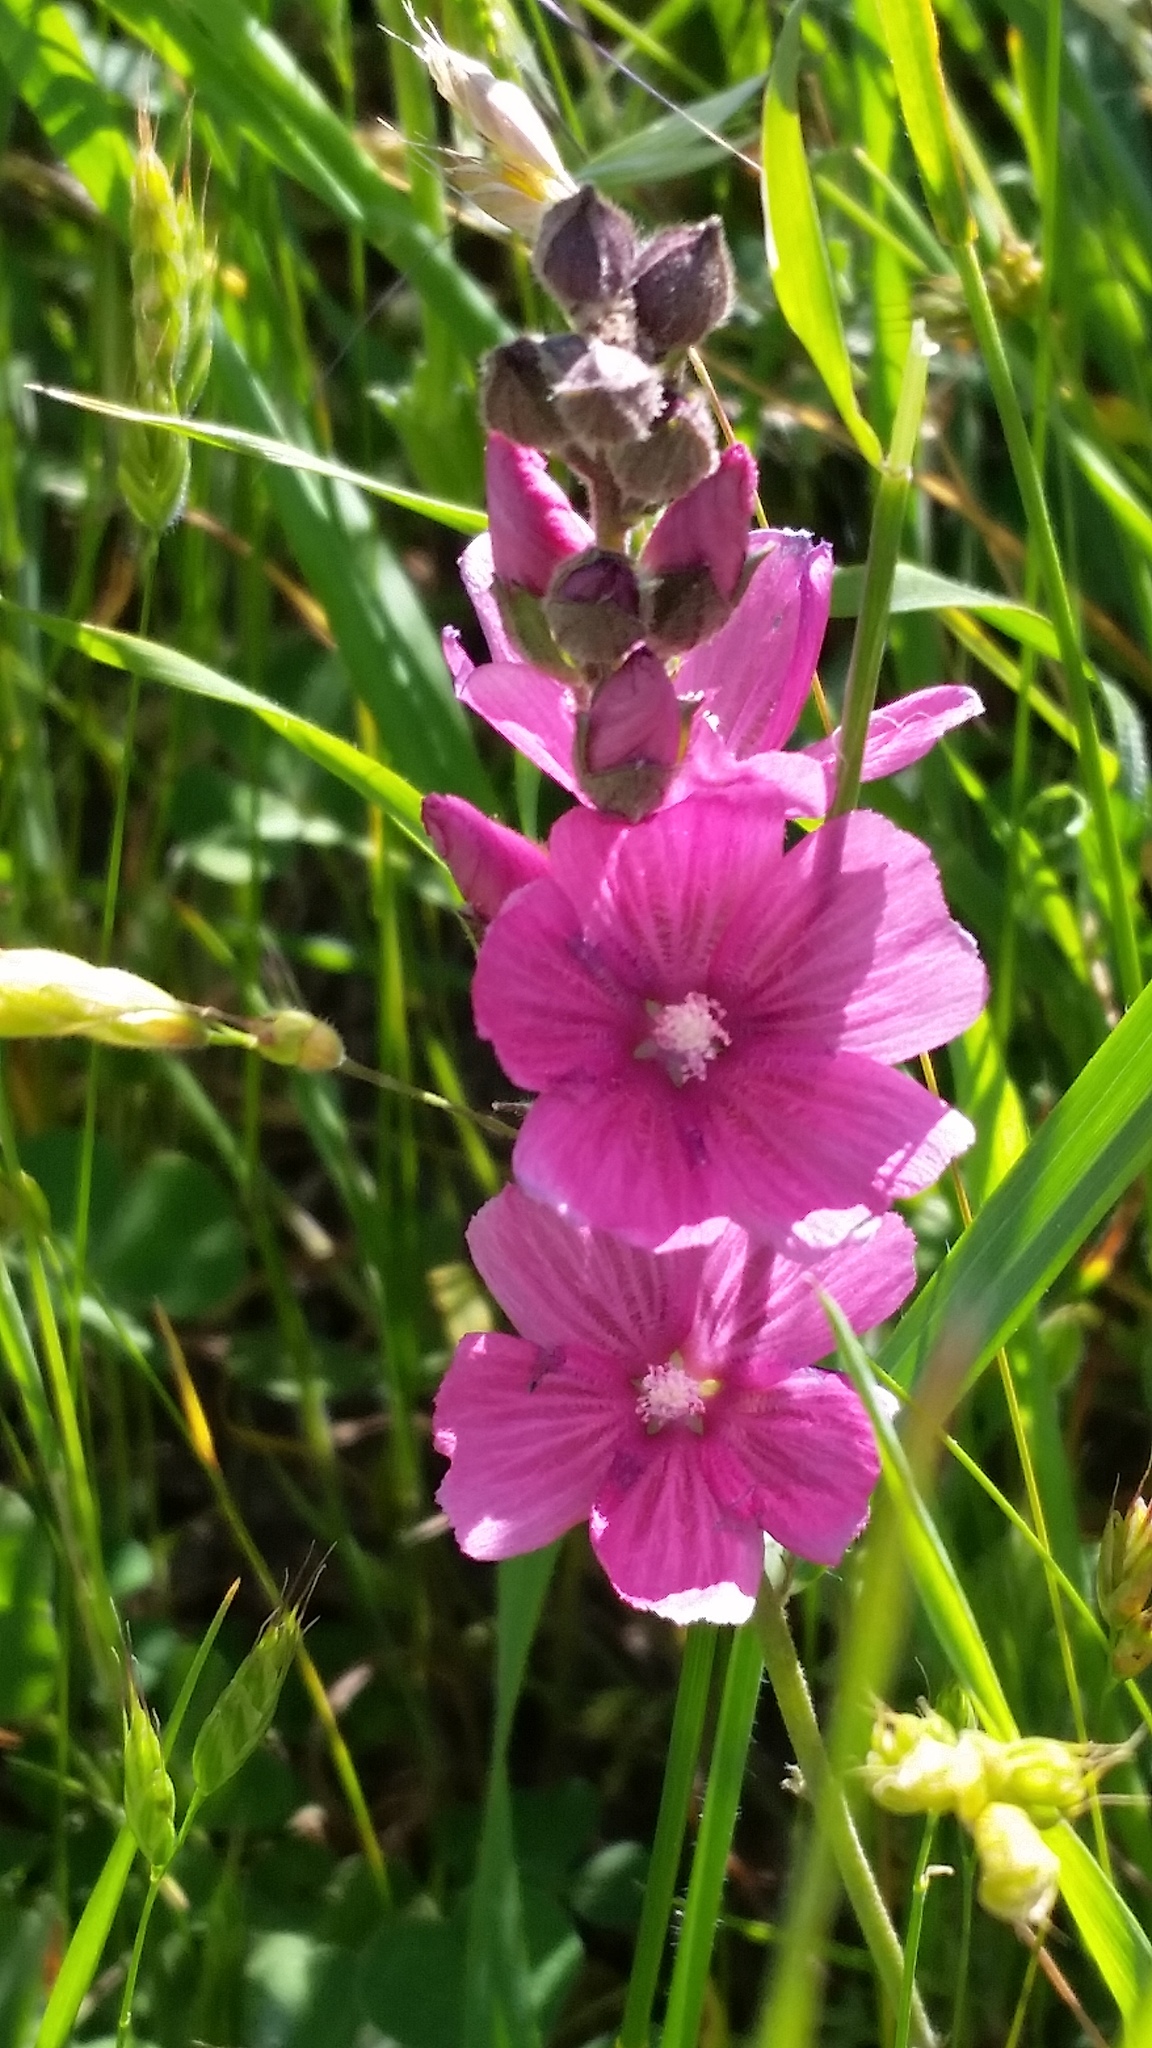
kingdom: Plantae
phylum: Tracheophyta
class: Magnoliopsida
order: Malvales
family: Malvaceae
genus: Sidalcea
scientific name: Sidalcea malviflora
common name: Greek mallow
